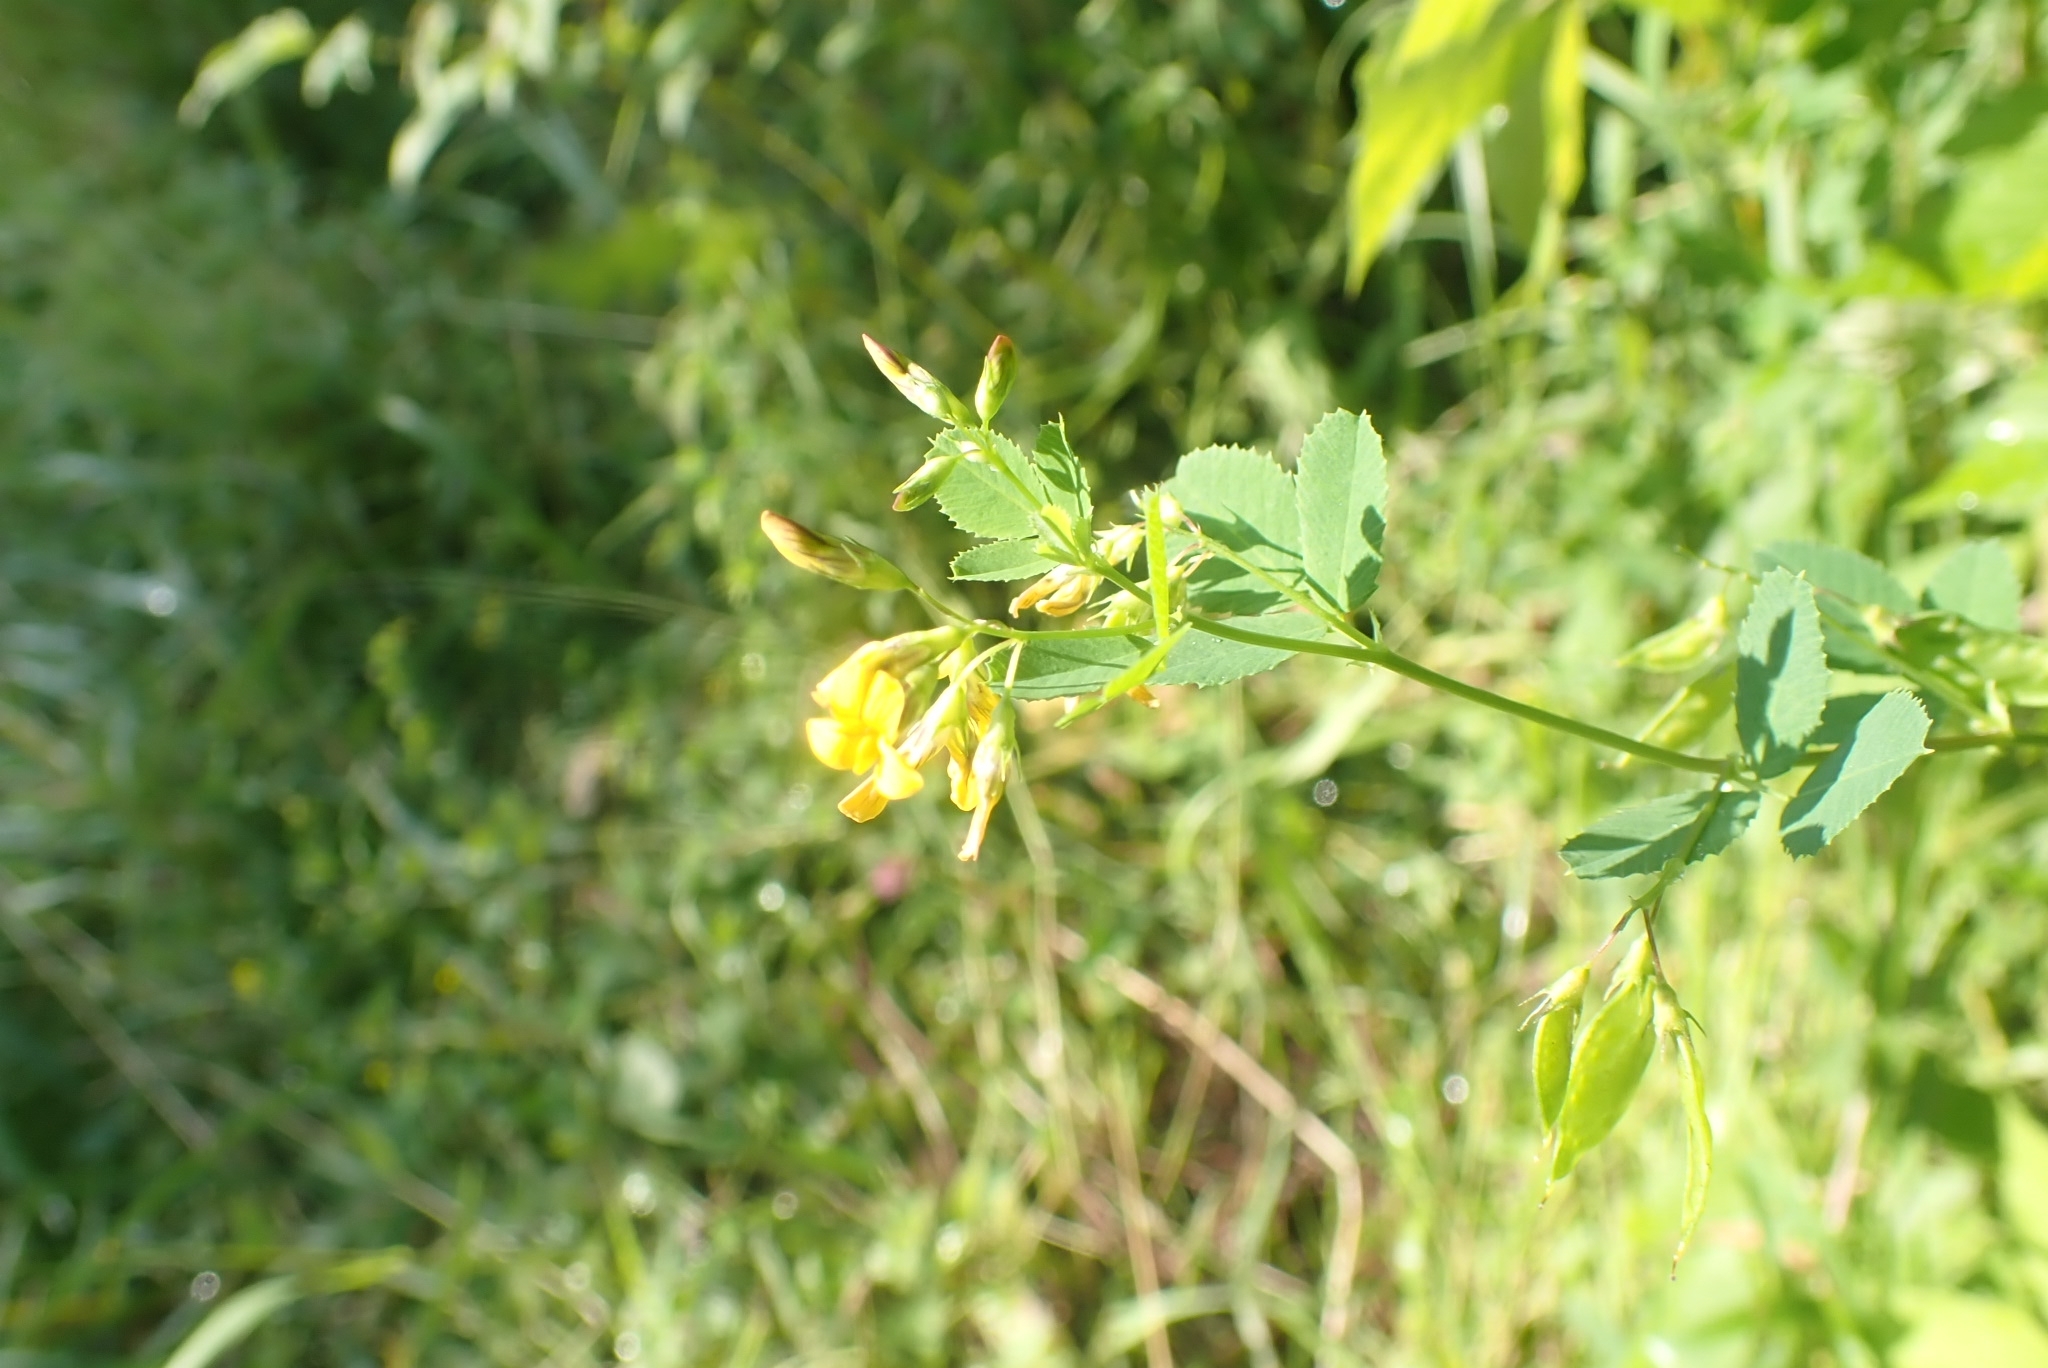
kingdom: Plantae
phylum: Tracheophyta
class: Magnoliopsida
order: Fabales
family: Fabaceae
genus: Medicago
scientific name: Medicago platycarpos
